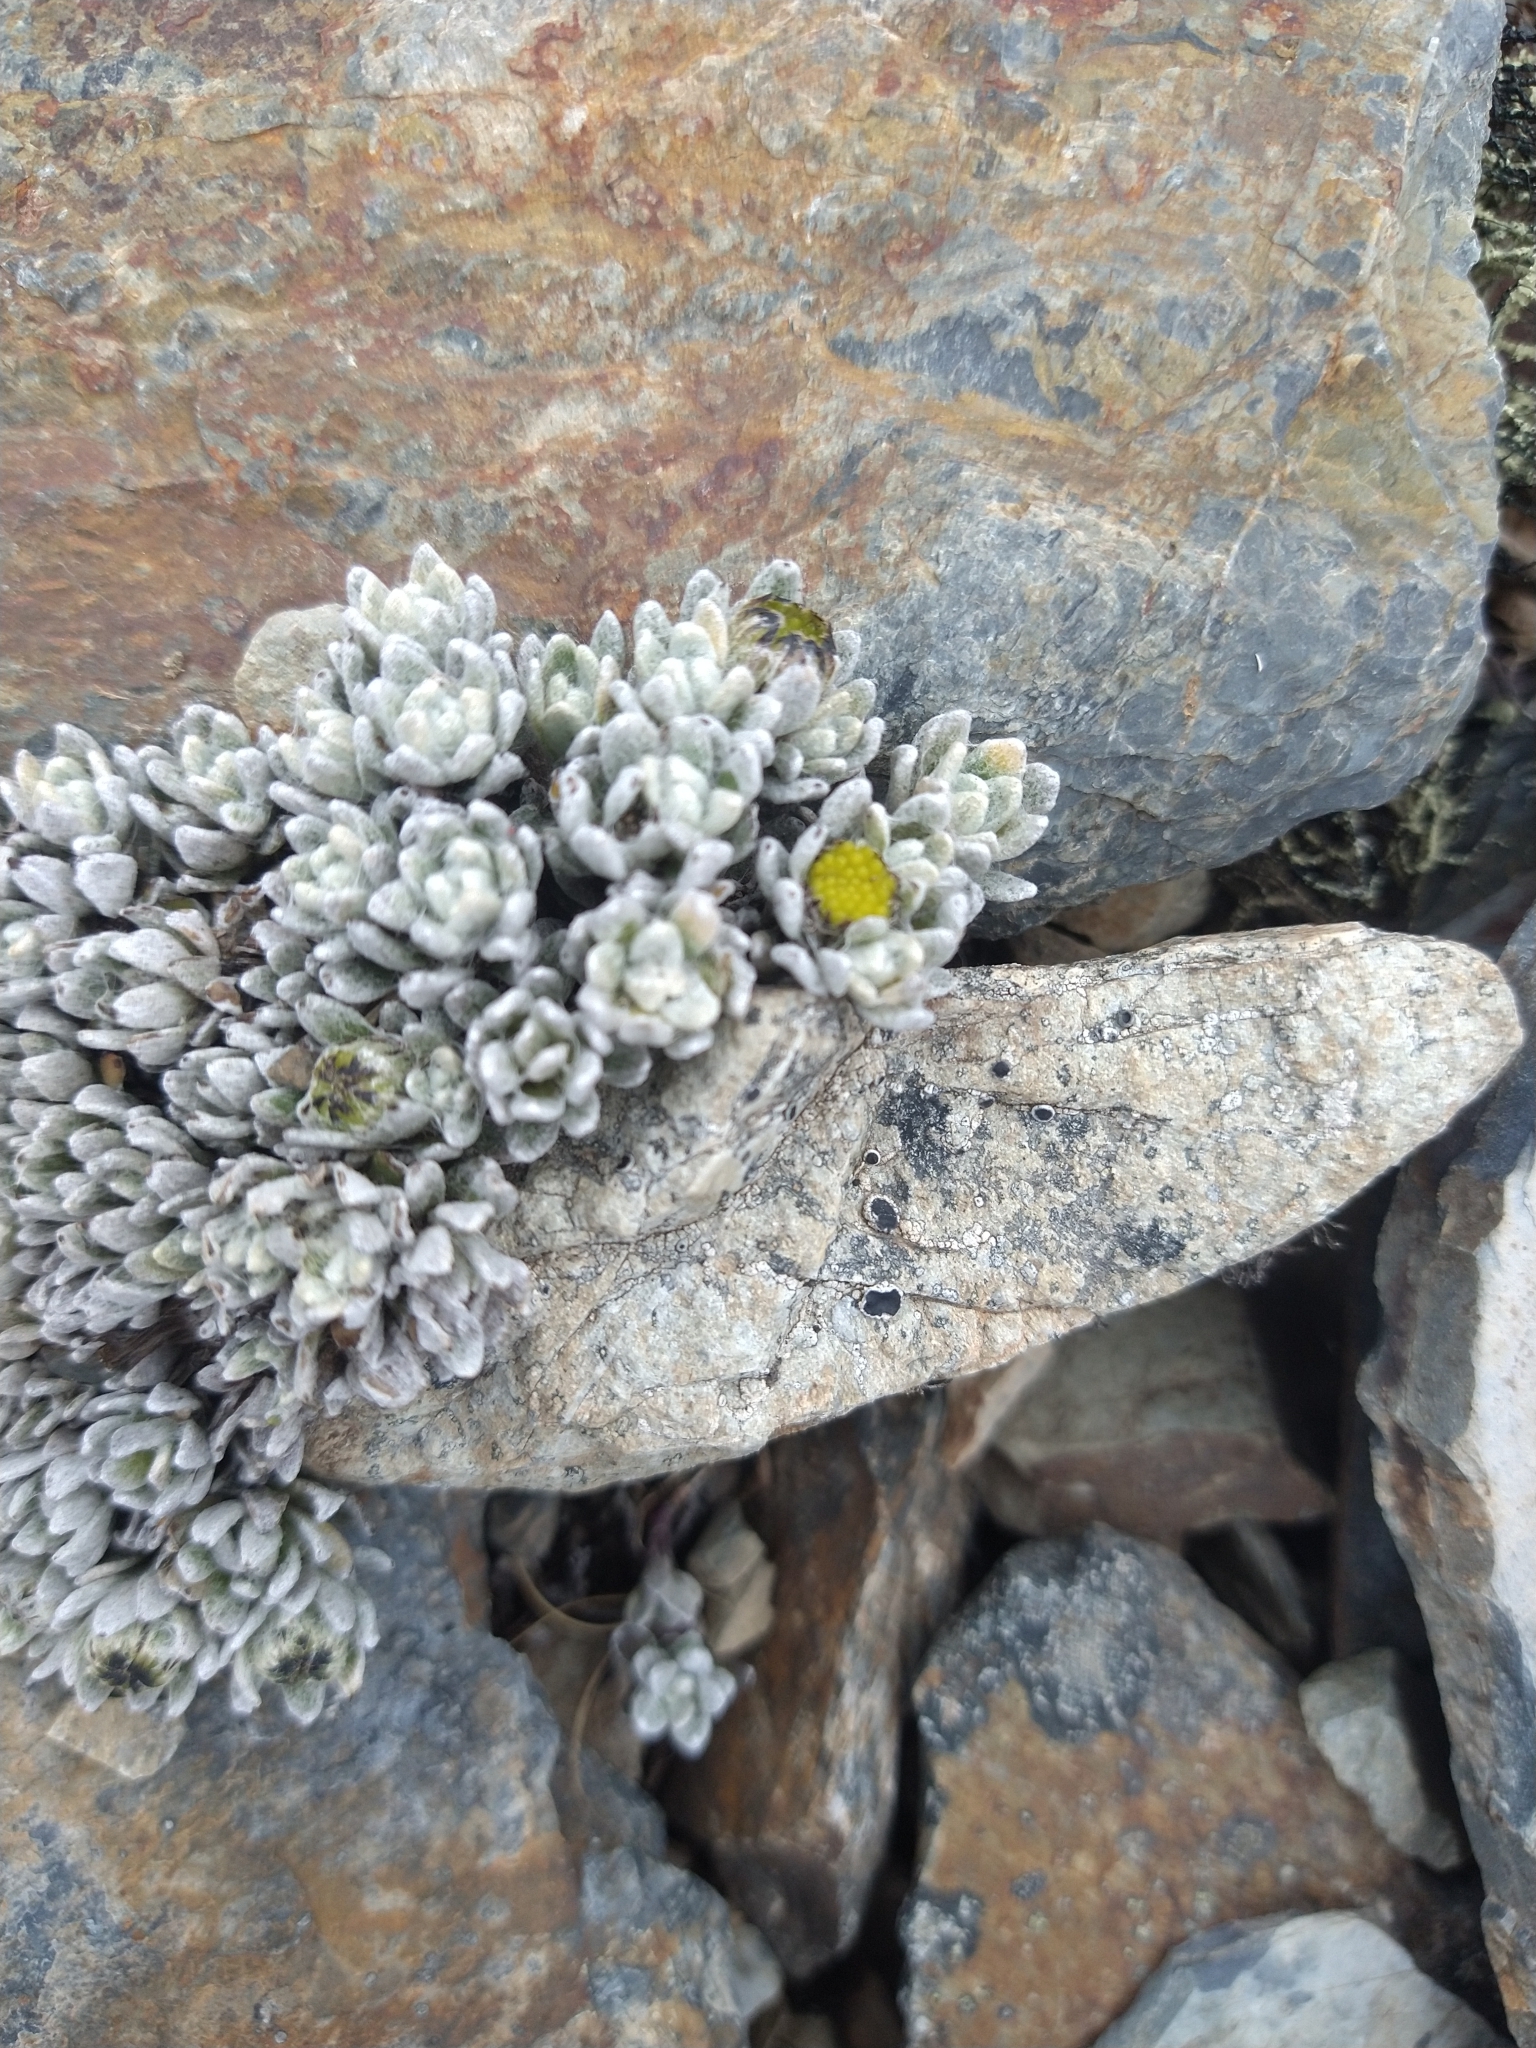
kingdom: Plantae
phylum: Tracheophyta
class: Magnoliopsida
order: Asterales
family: Asteraceae
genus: Senecio
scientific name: Senecio alloeophyllus
